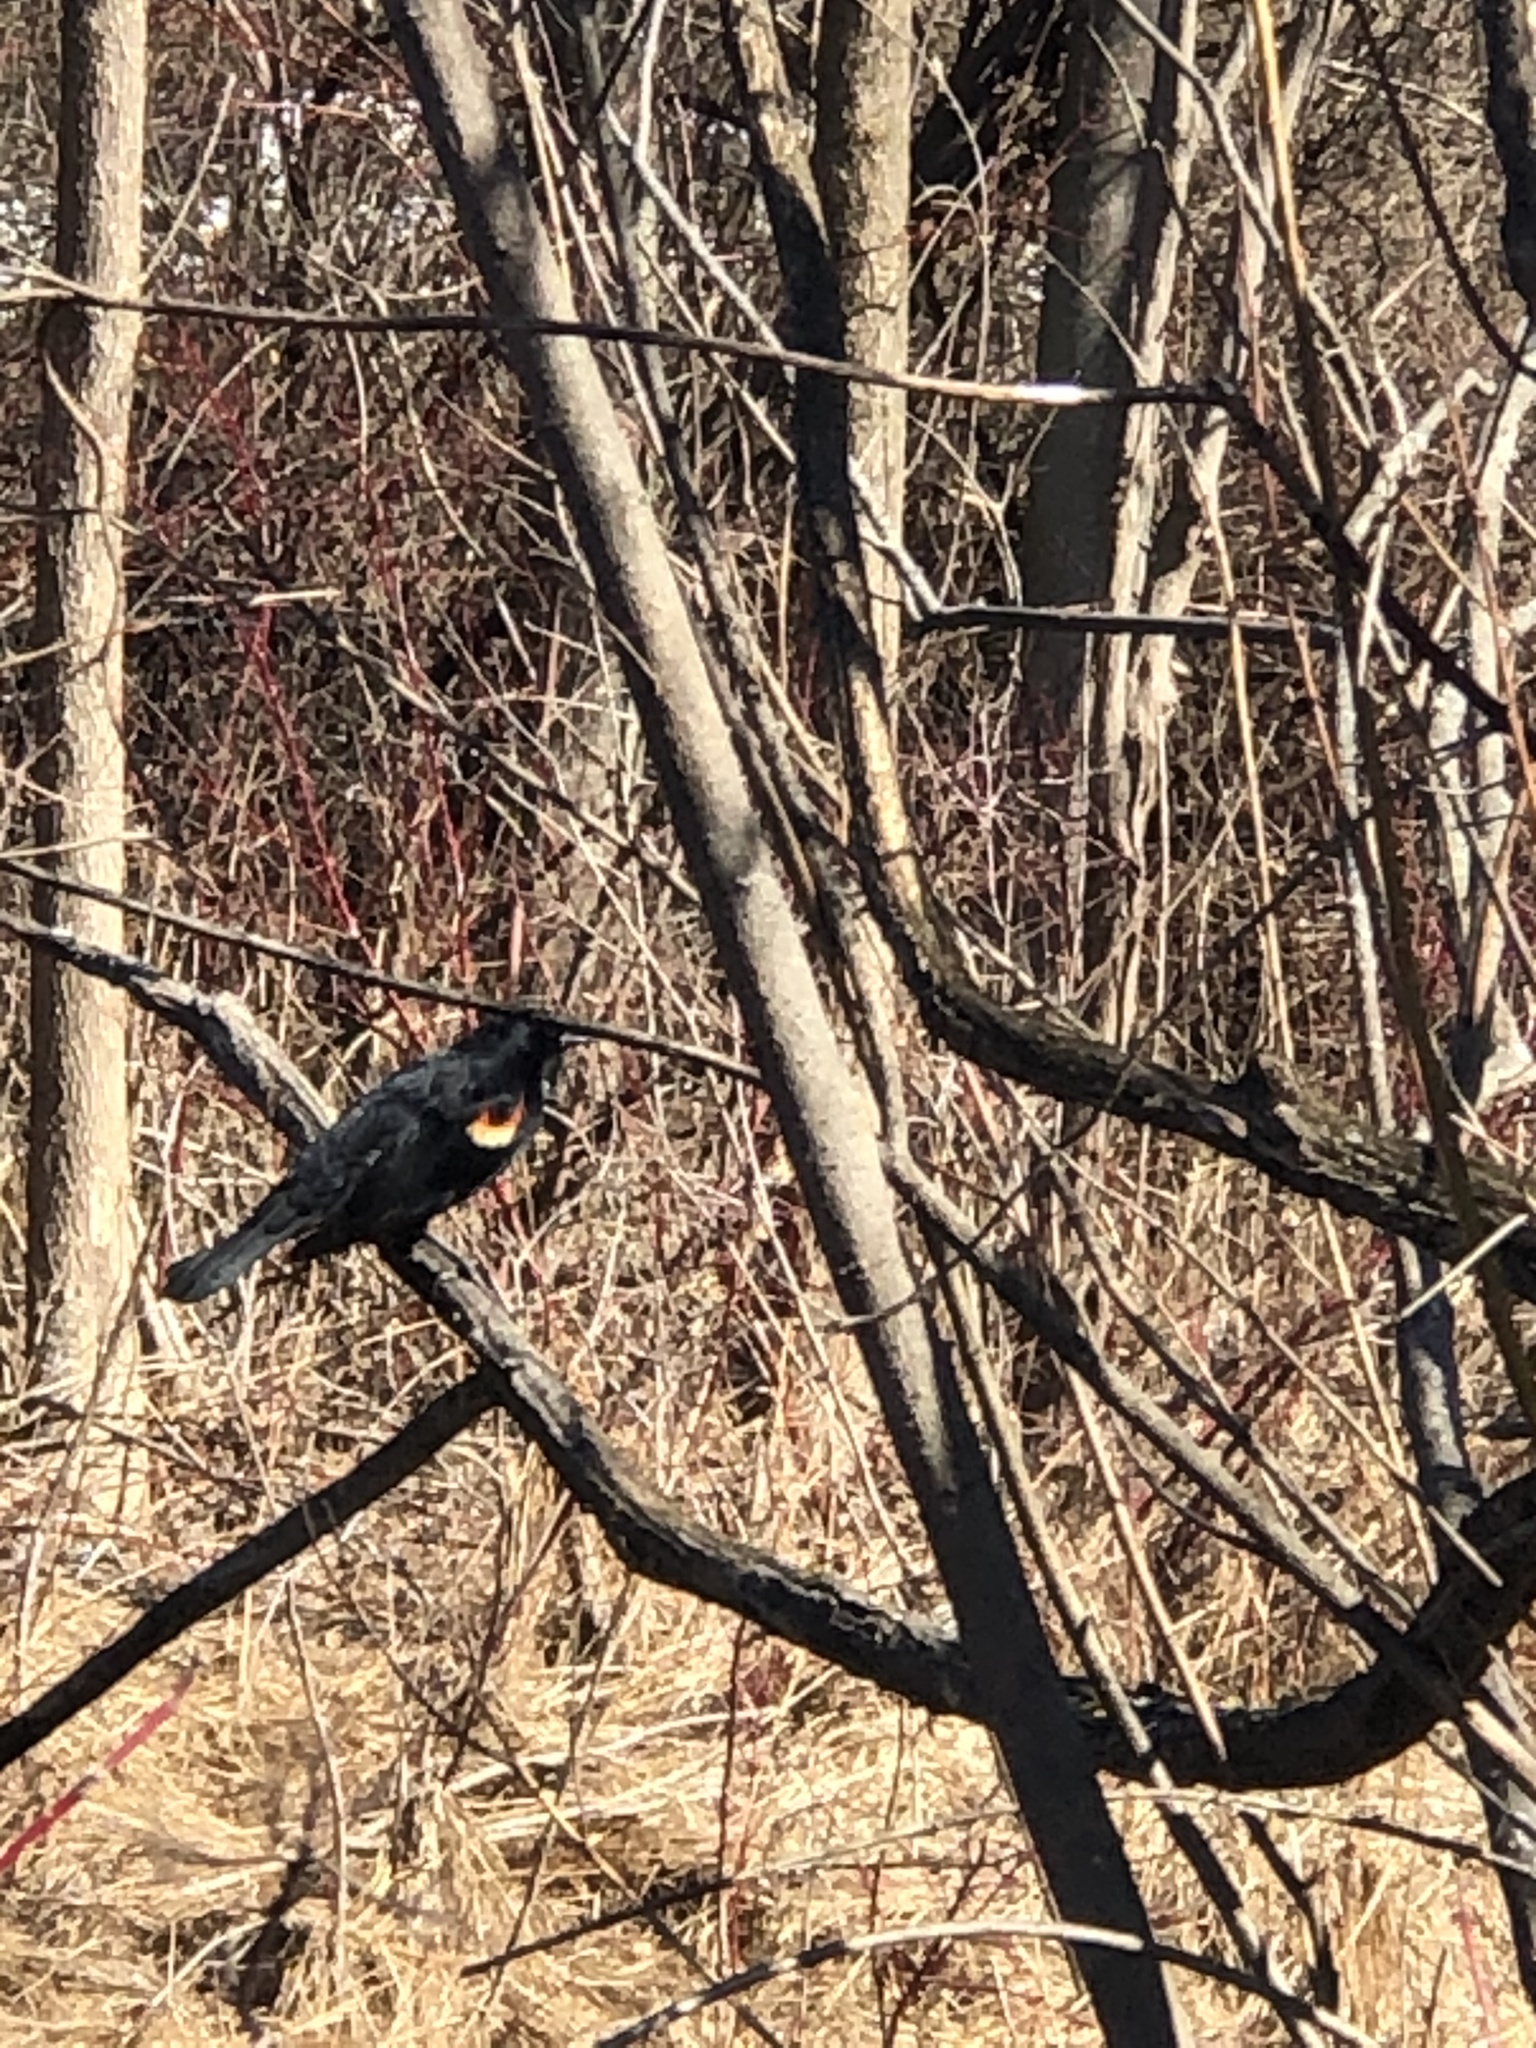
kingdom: Animalia
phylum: Chordata
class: Aves
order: Passeriformes
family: Icteridae
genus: Agelaius
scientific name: Agelaius phoeniceus
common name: Red-winged blackbird
